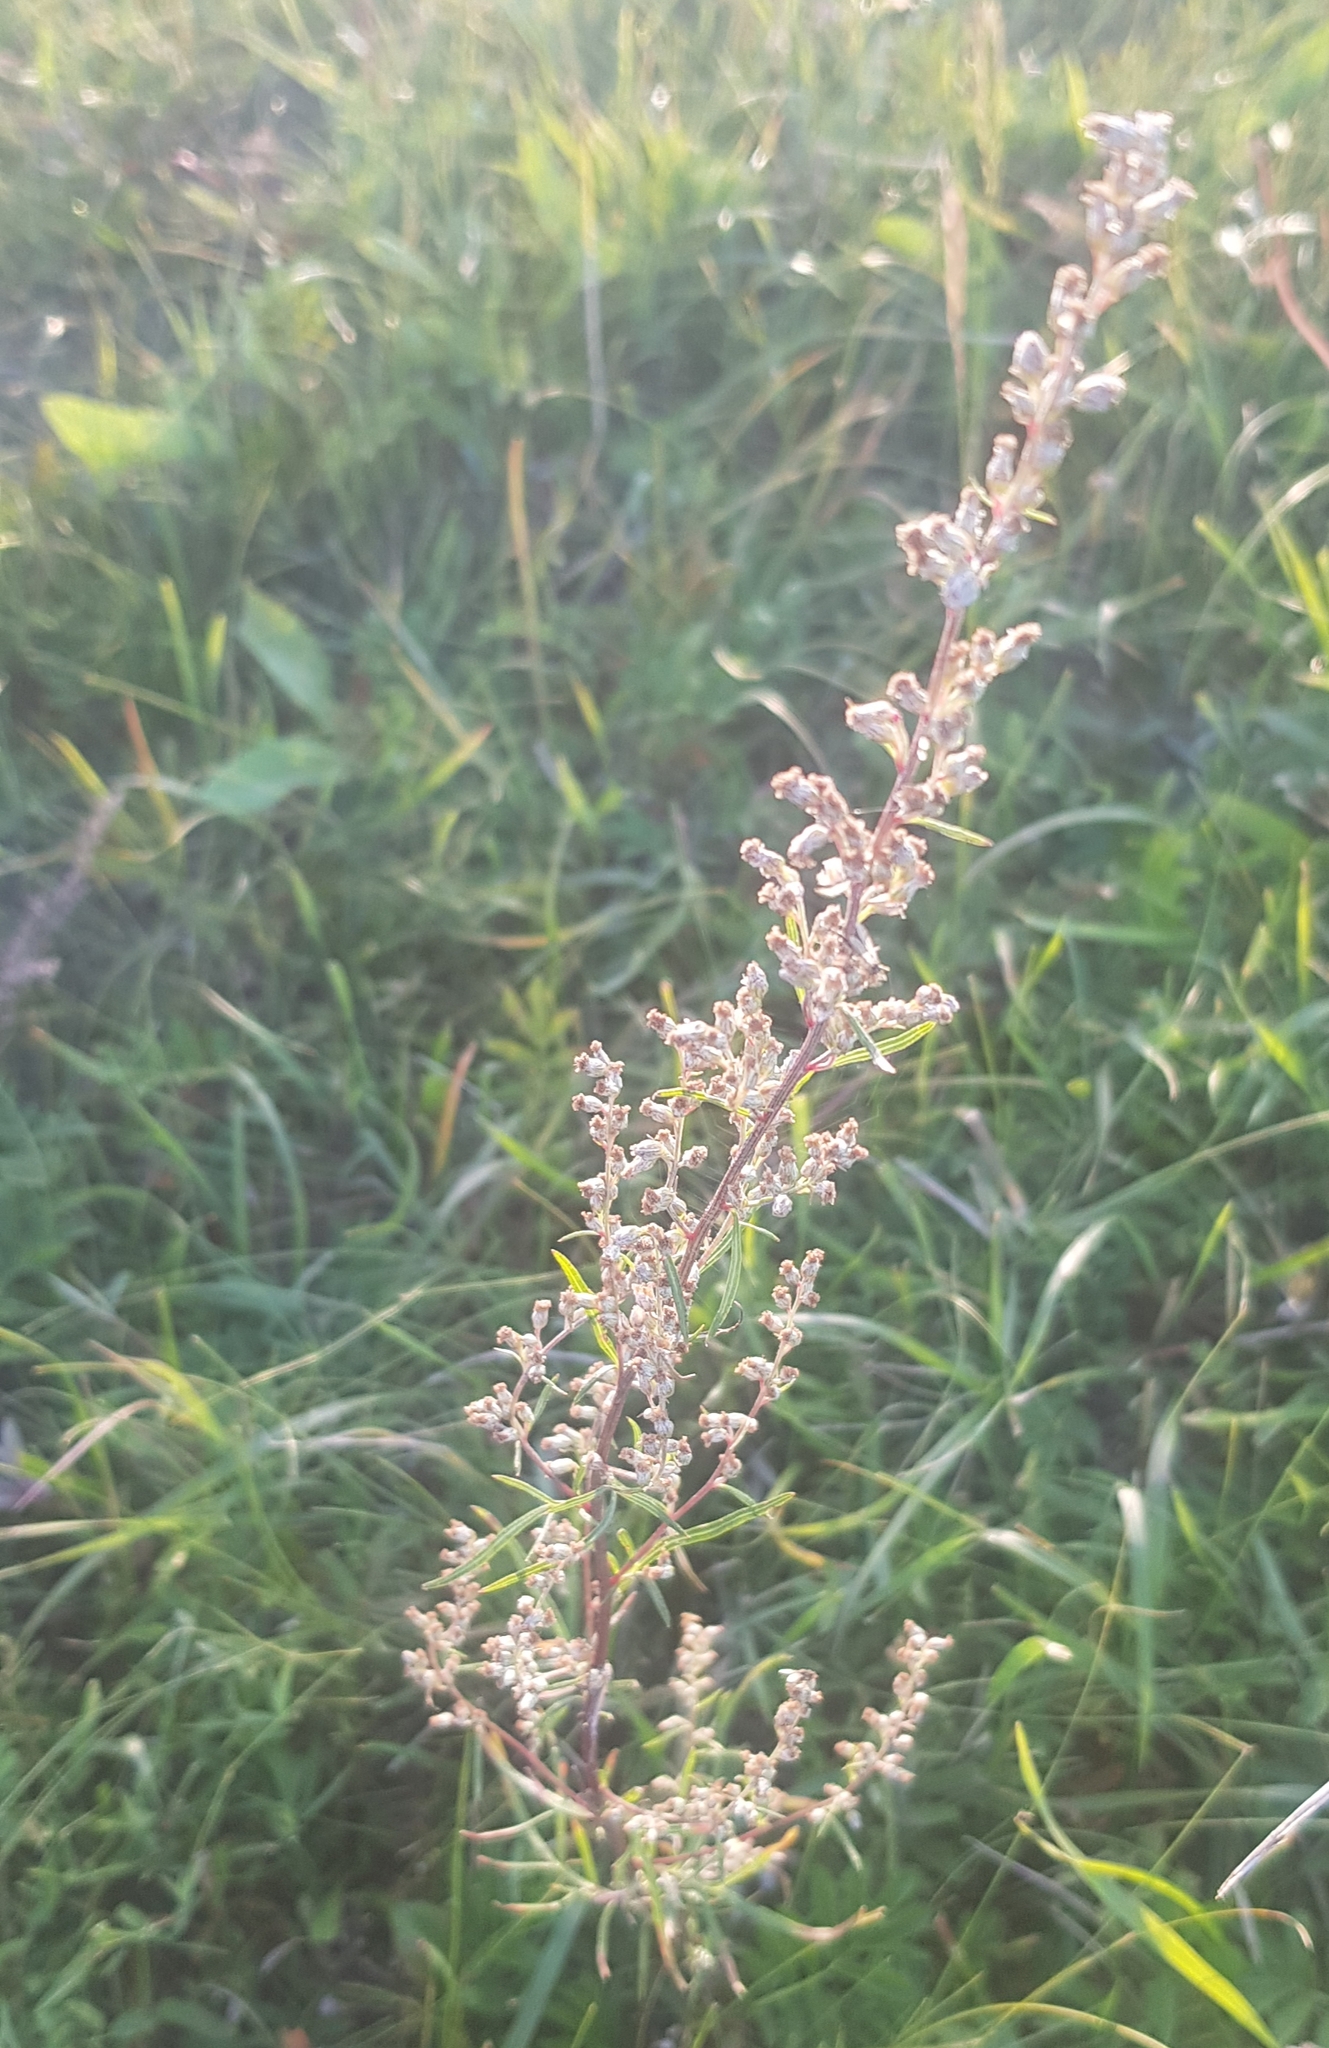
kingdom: Plantae
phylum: Tracheophyta
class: Magnoliopsida
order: Asterales
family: Asteraceae
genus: Artemisia
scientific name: Artemisia vulgaris
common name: Mugwort
